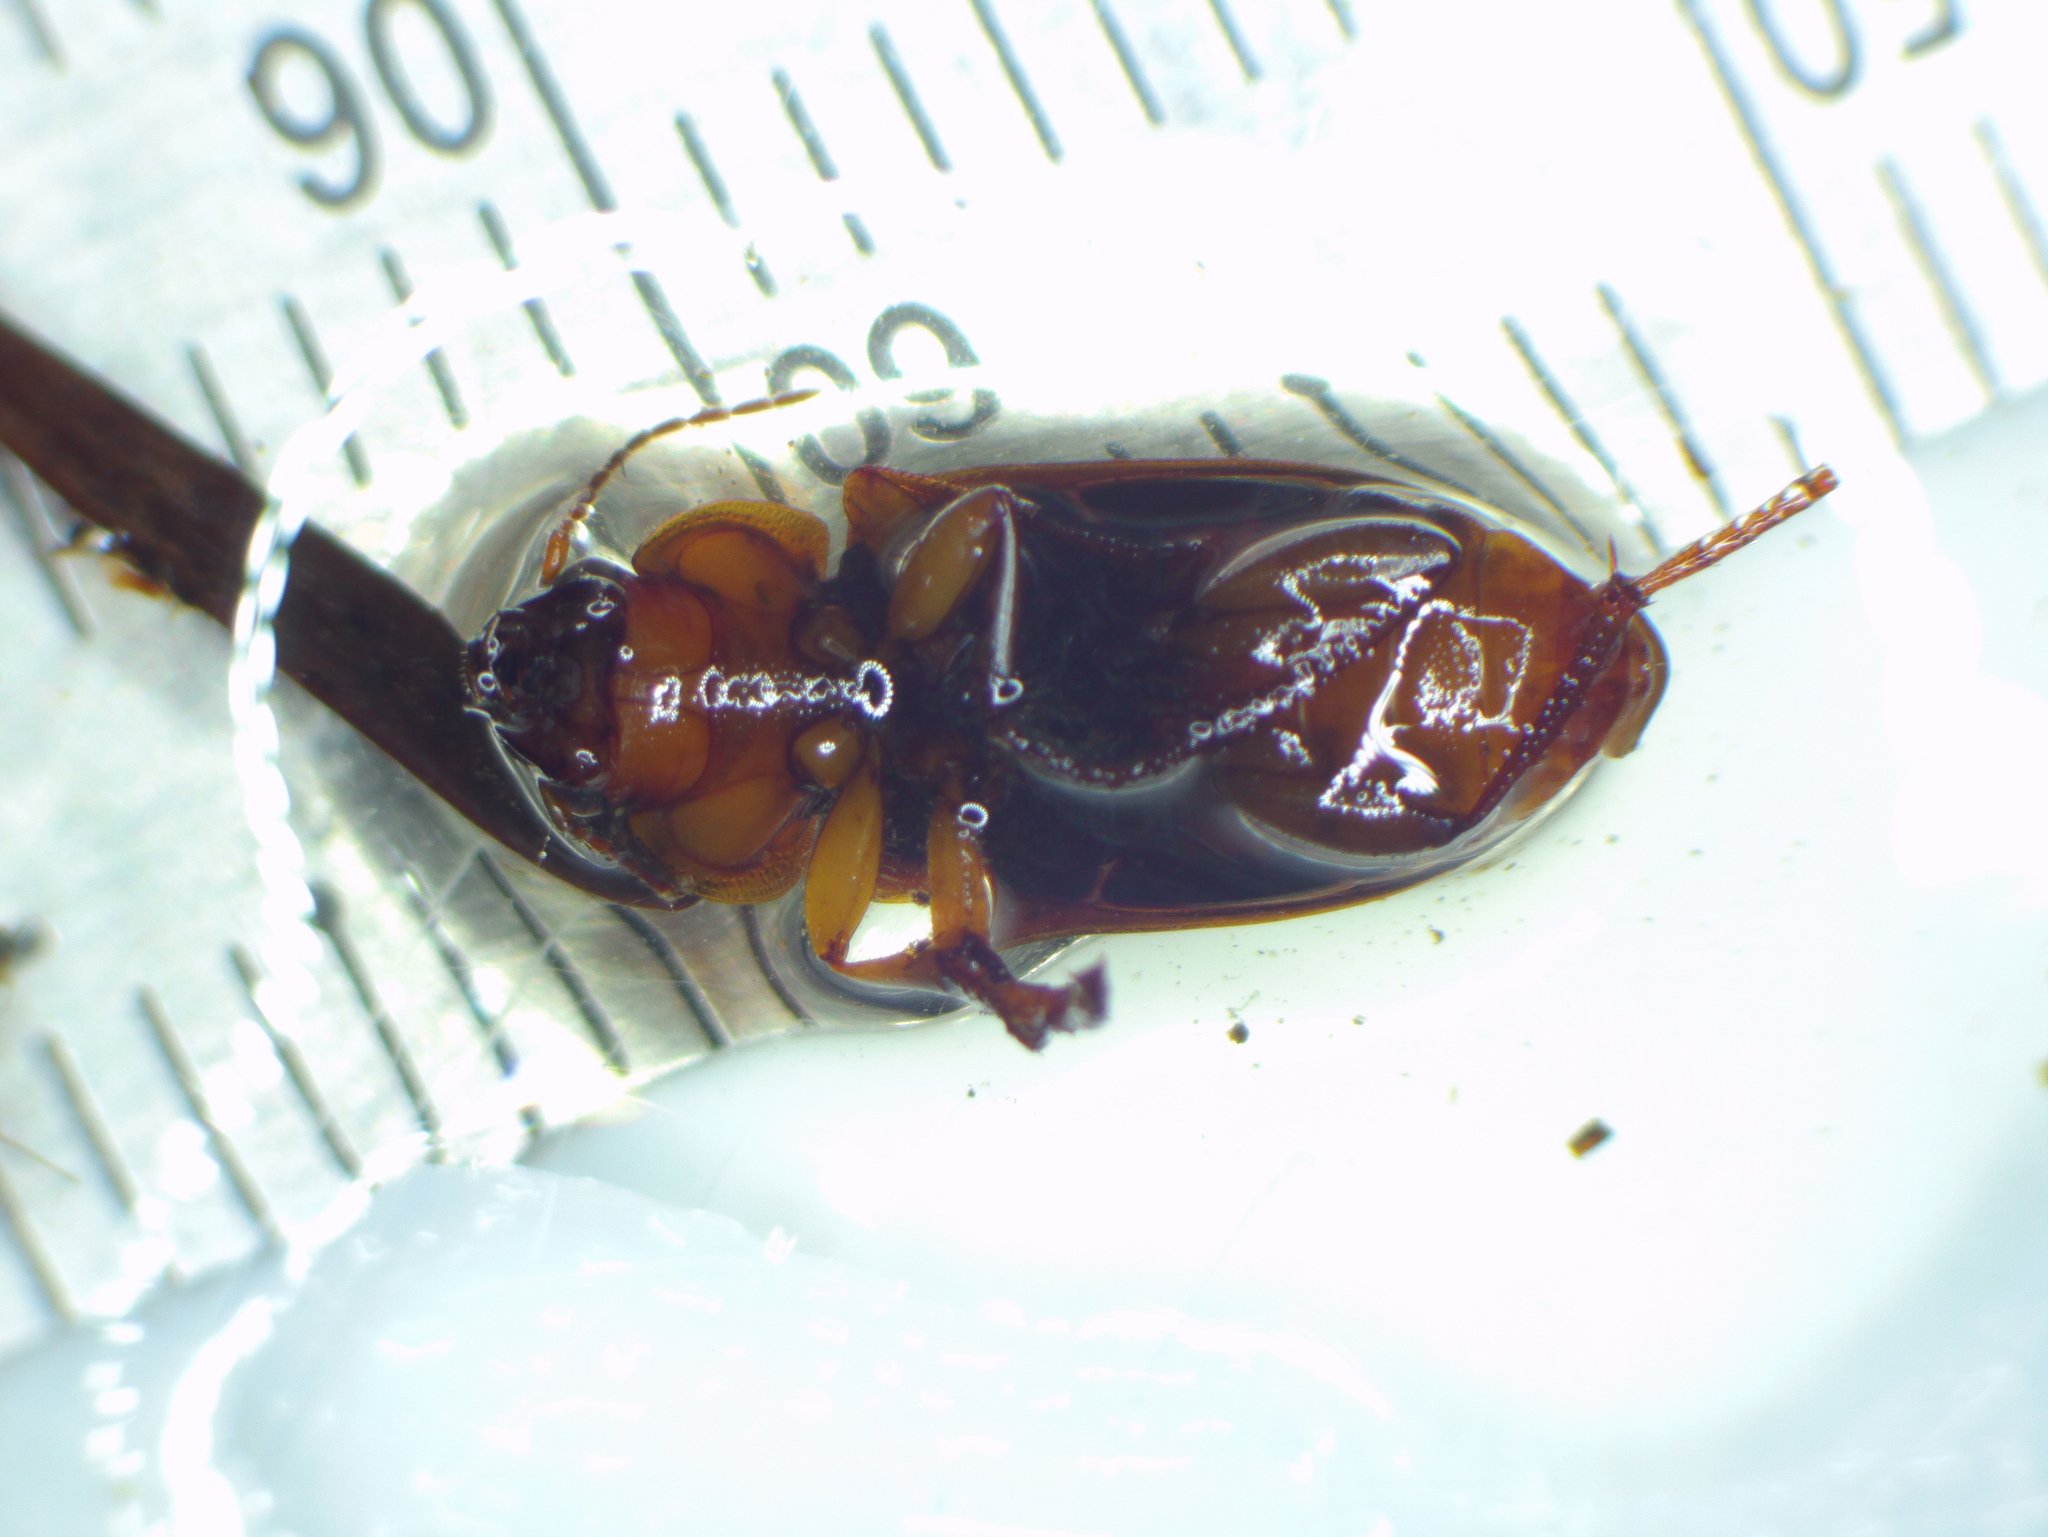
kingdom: Animalia
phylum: Arthropoda
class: Insecta
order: Coleoptera
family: Carabidae
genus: Amphasia
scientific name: Amphasia interstitialis
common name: Red-headed ground beetle
